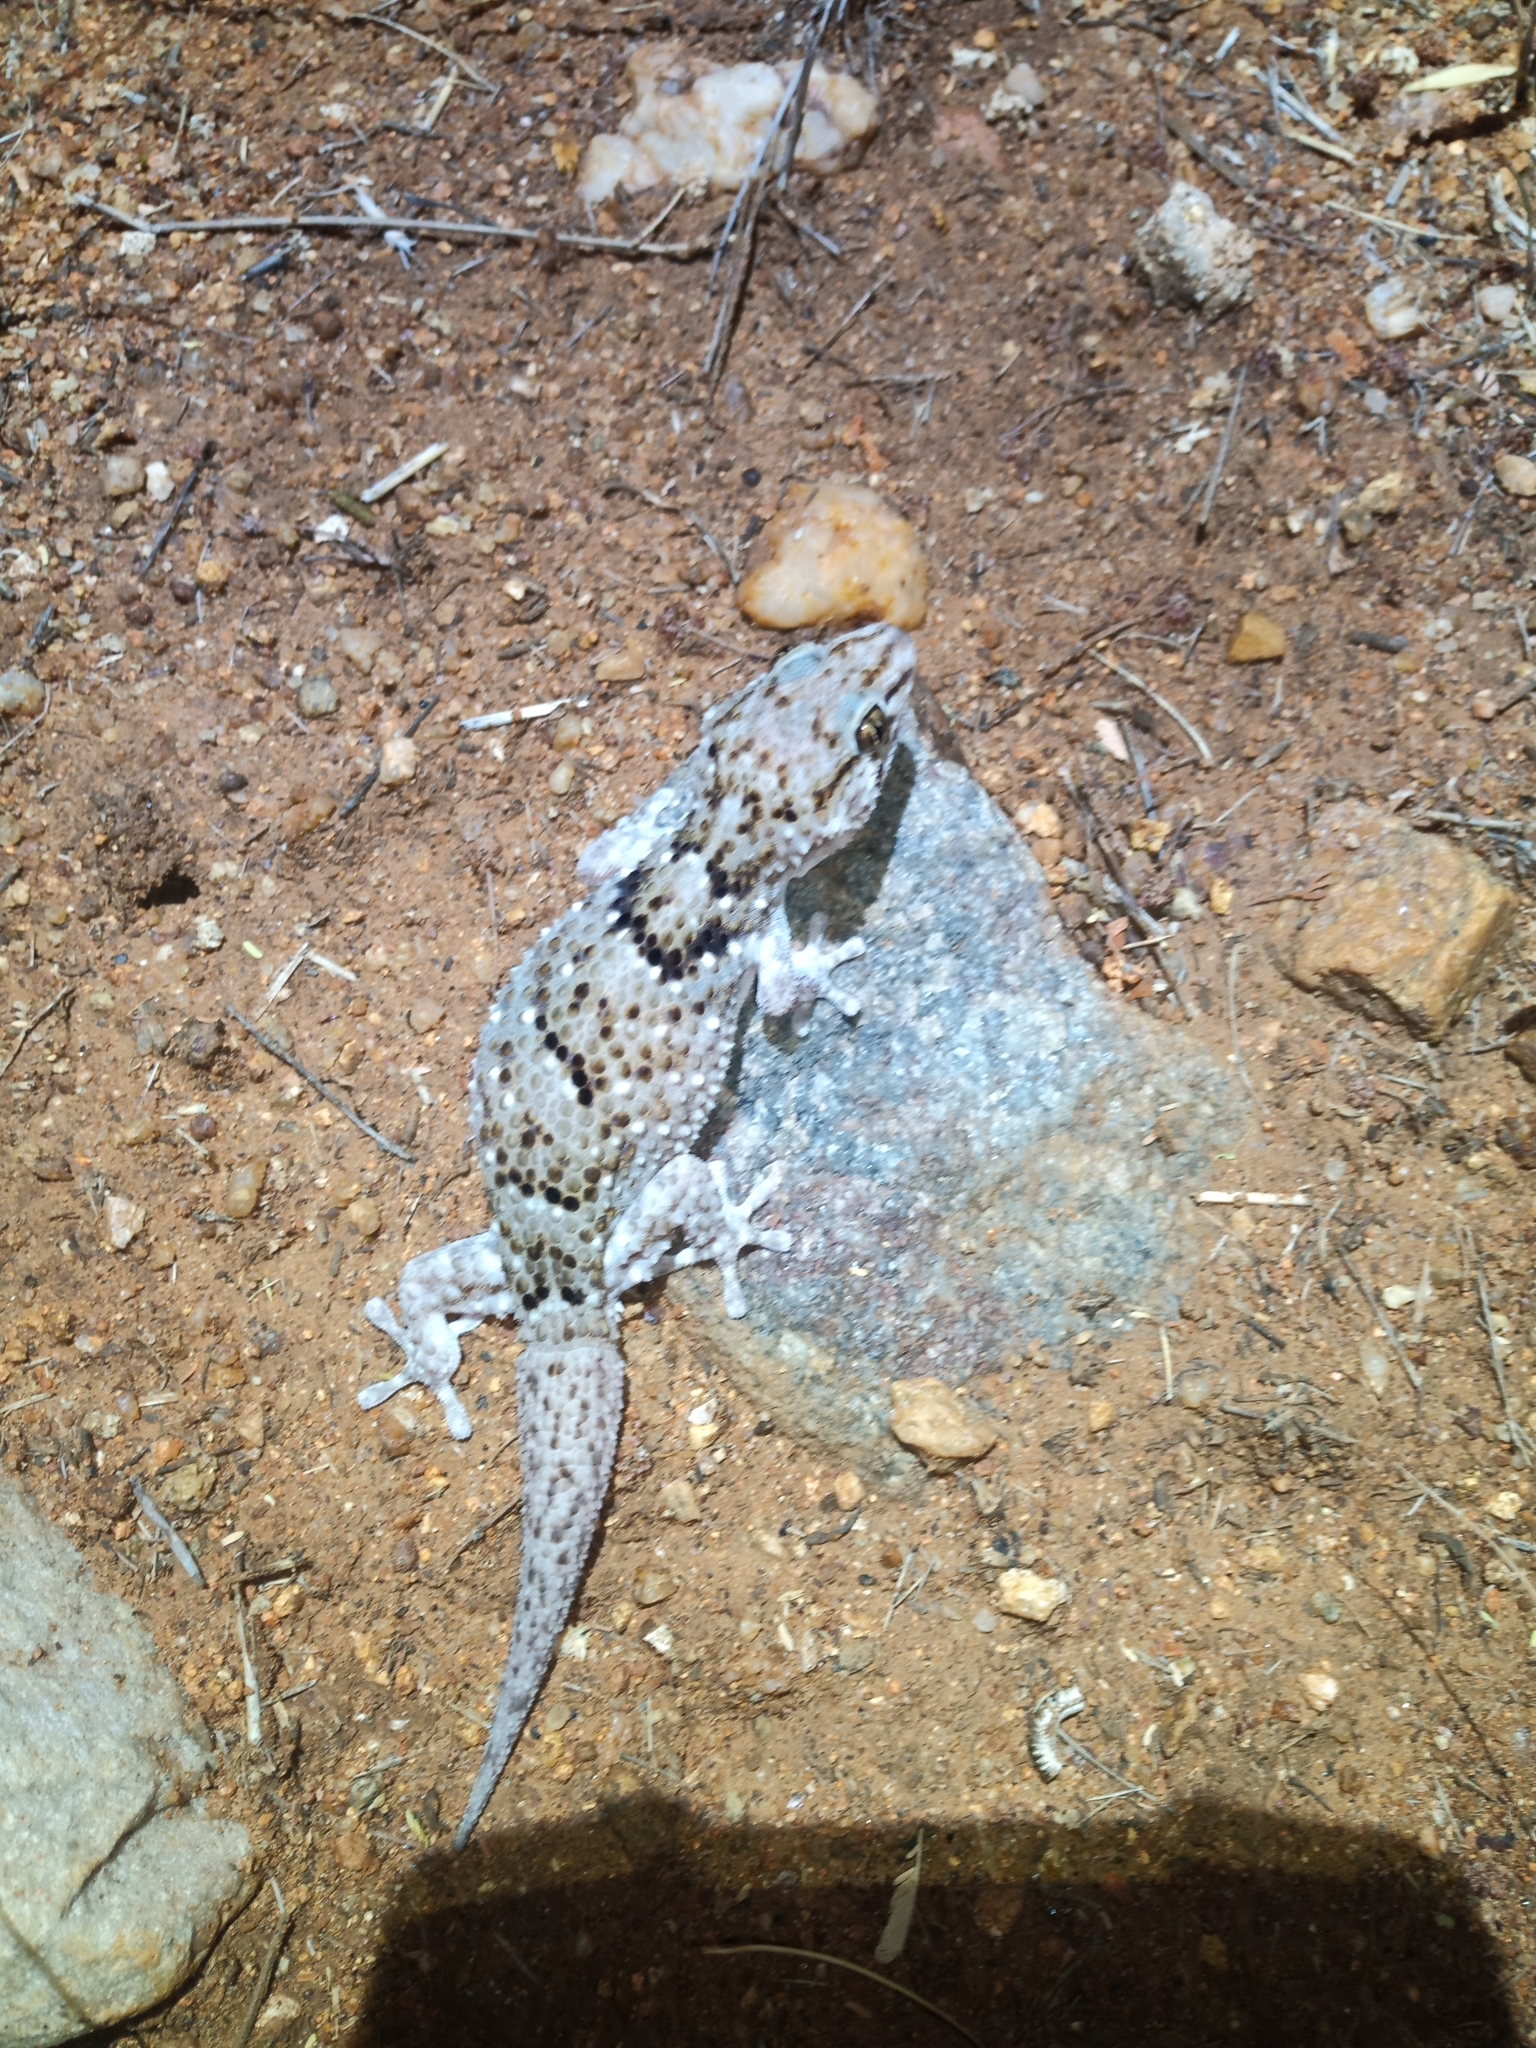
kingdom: Animalia
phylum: Chordata
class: Squamata
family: Gekkonidae
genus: Chondrodactylus
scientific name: Chondrodactylus turneri
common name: Turner’s gecko
